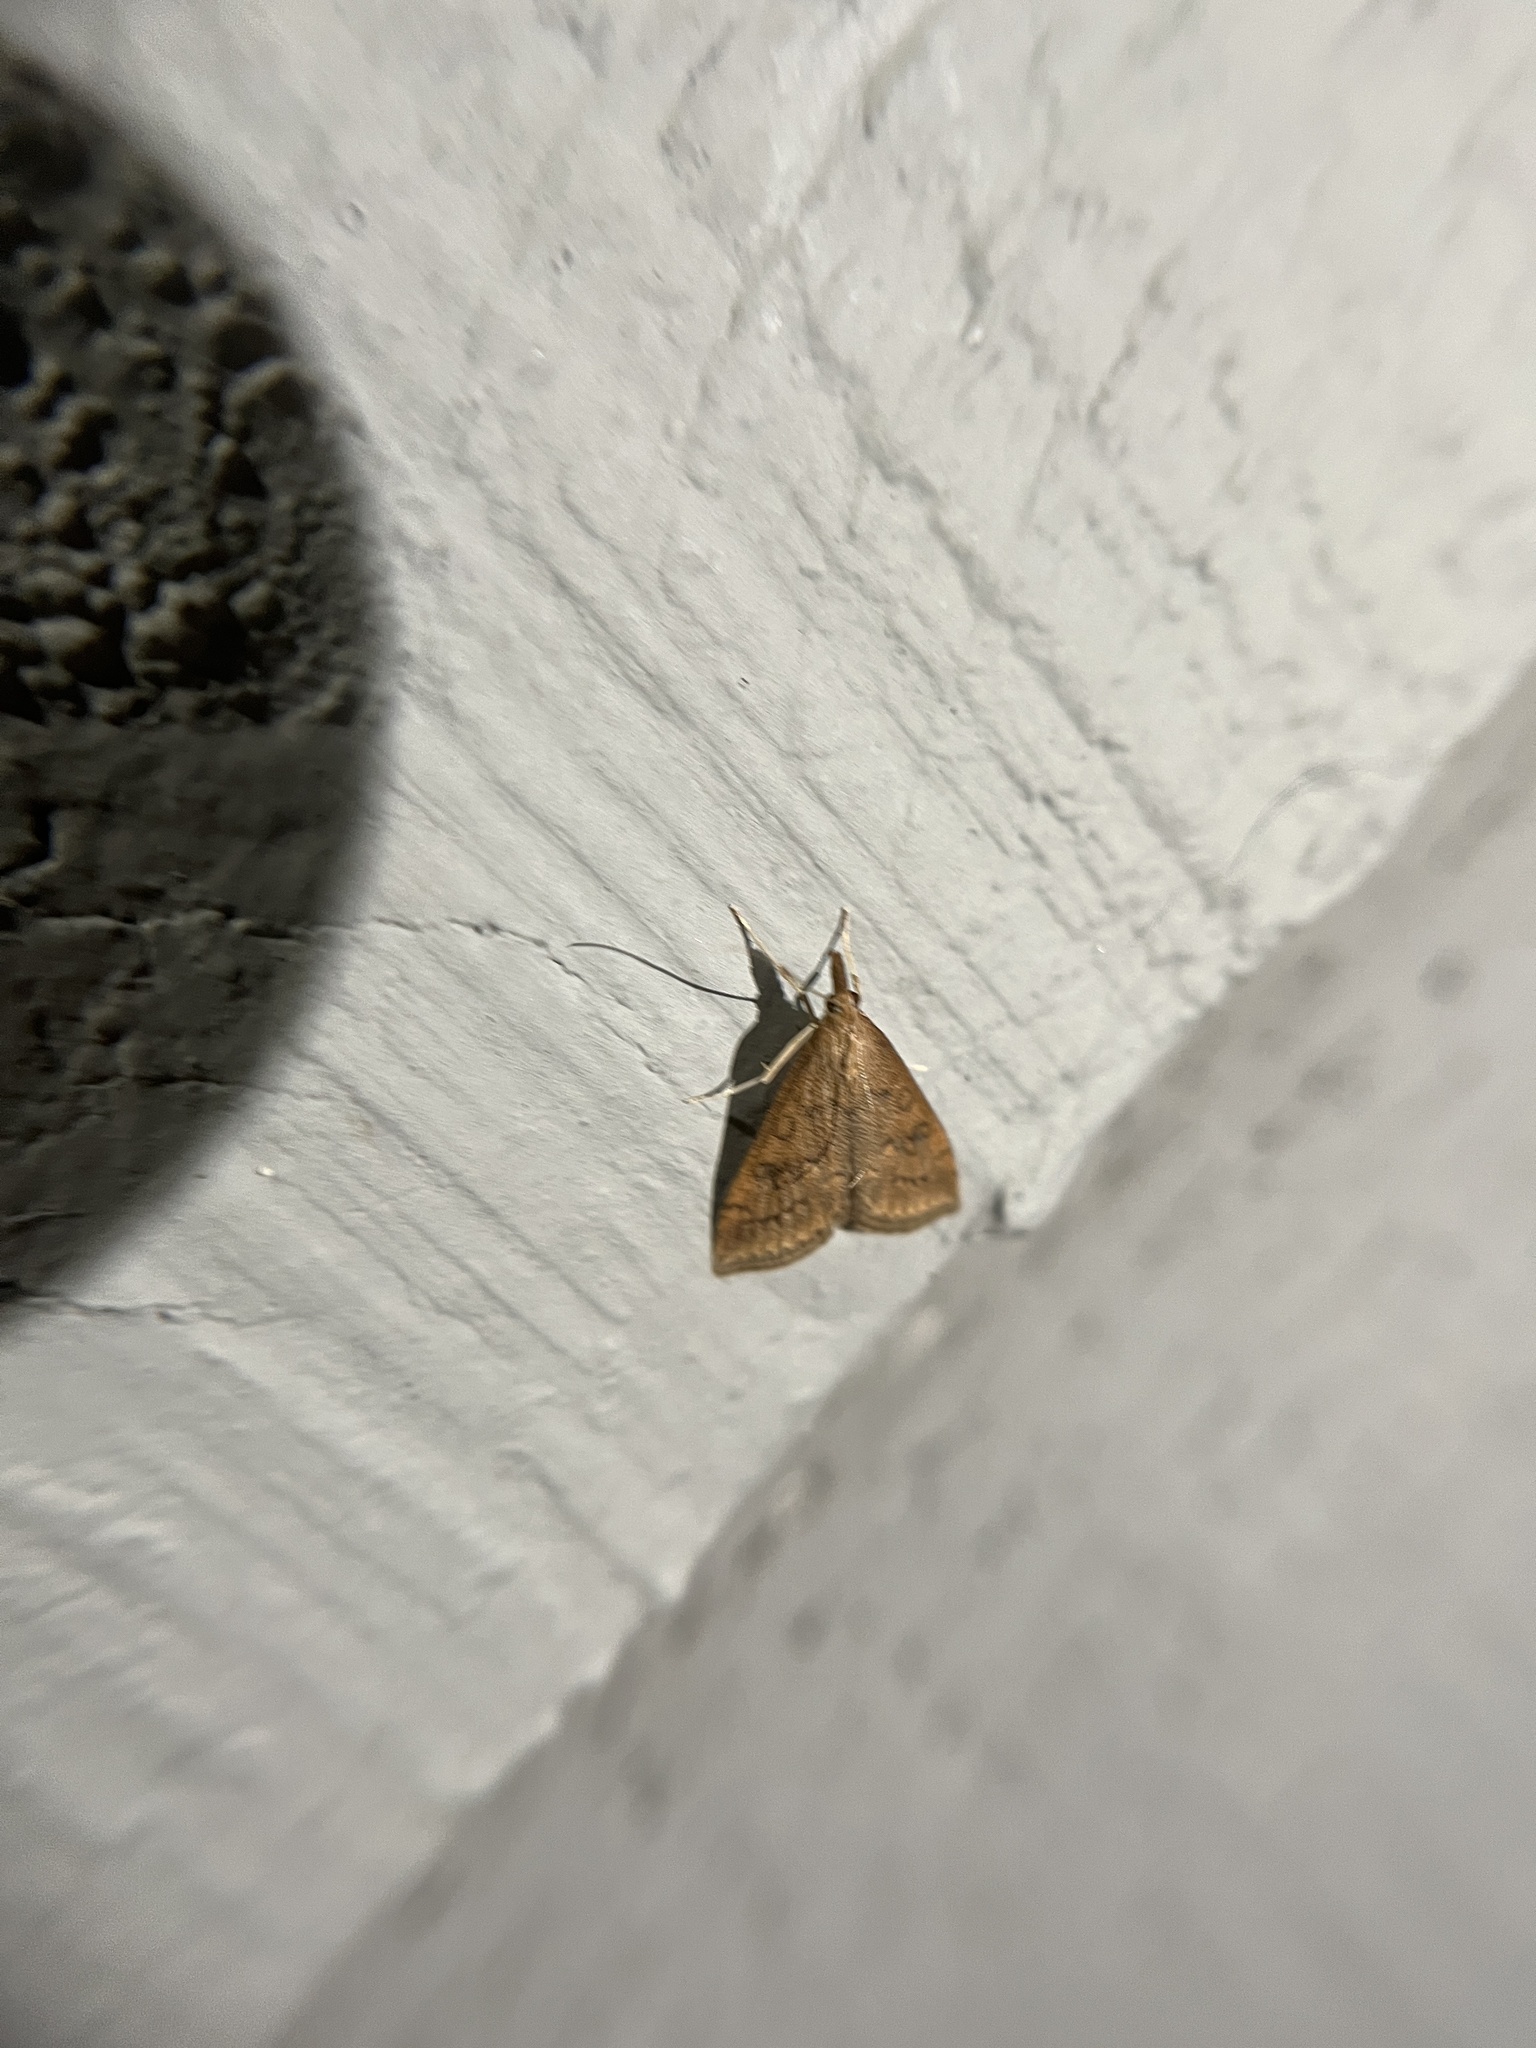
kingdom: Animalia
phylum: Arthropoda
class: Insecta
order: Lepidoptera
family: Crambidae
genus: Udea
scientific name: Udea rubigalis
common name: Celery leaftier moth
